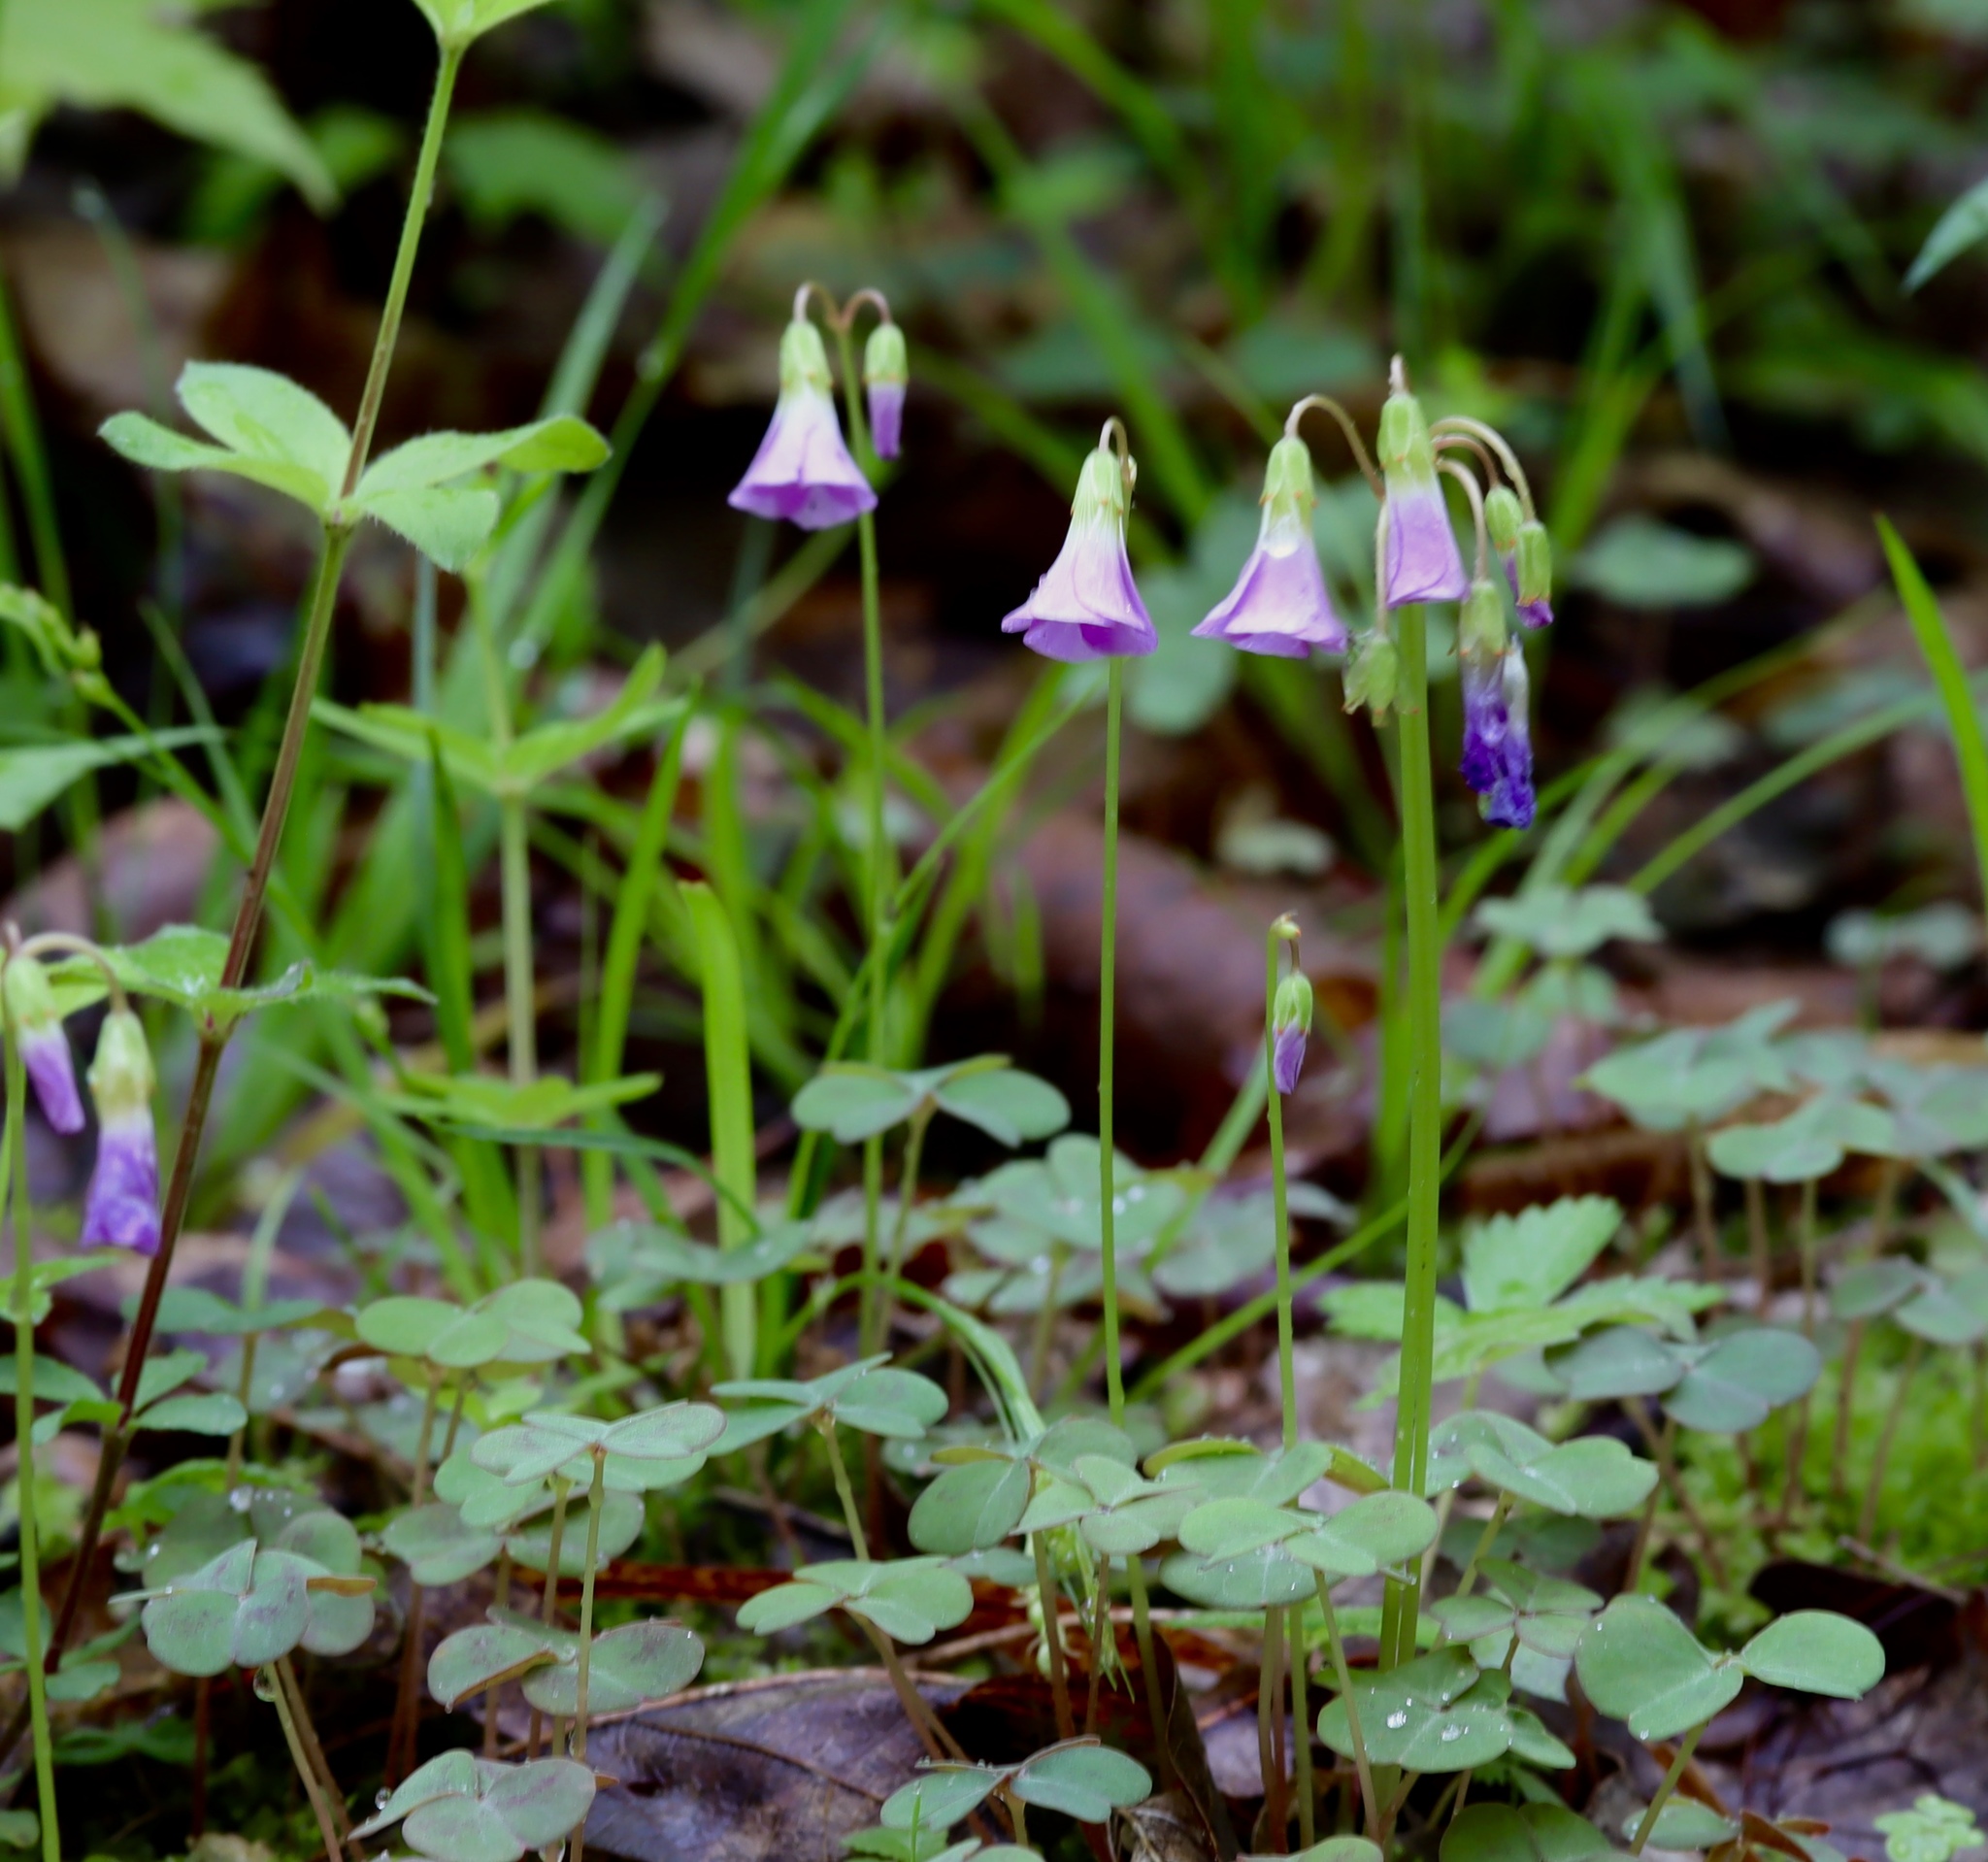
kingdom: Plantae
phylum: Tracheophyta
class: Magnoliopsida
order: Oxalidales
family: Oxalidaceae
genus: Oxalis
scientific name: Oxalis violacea
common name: Violet wood-sorrel
